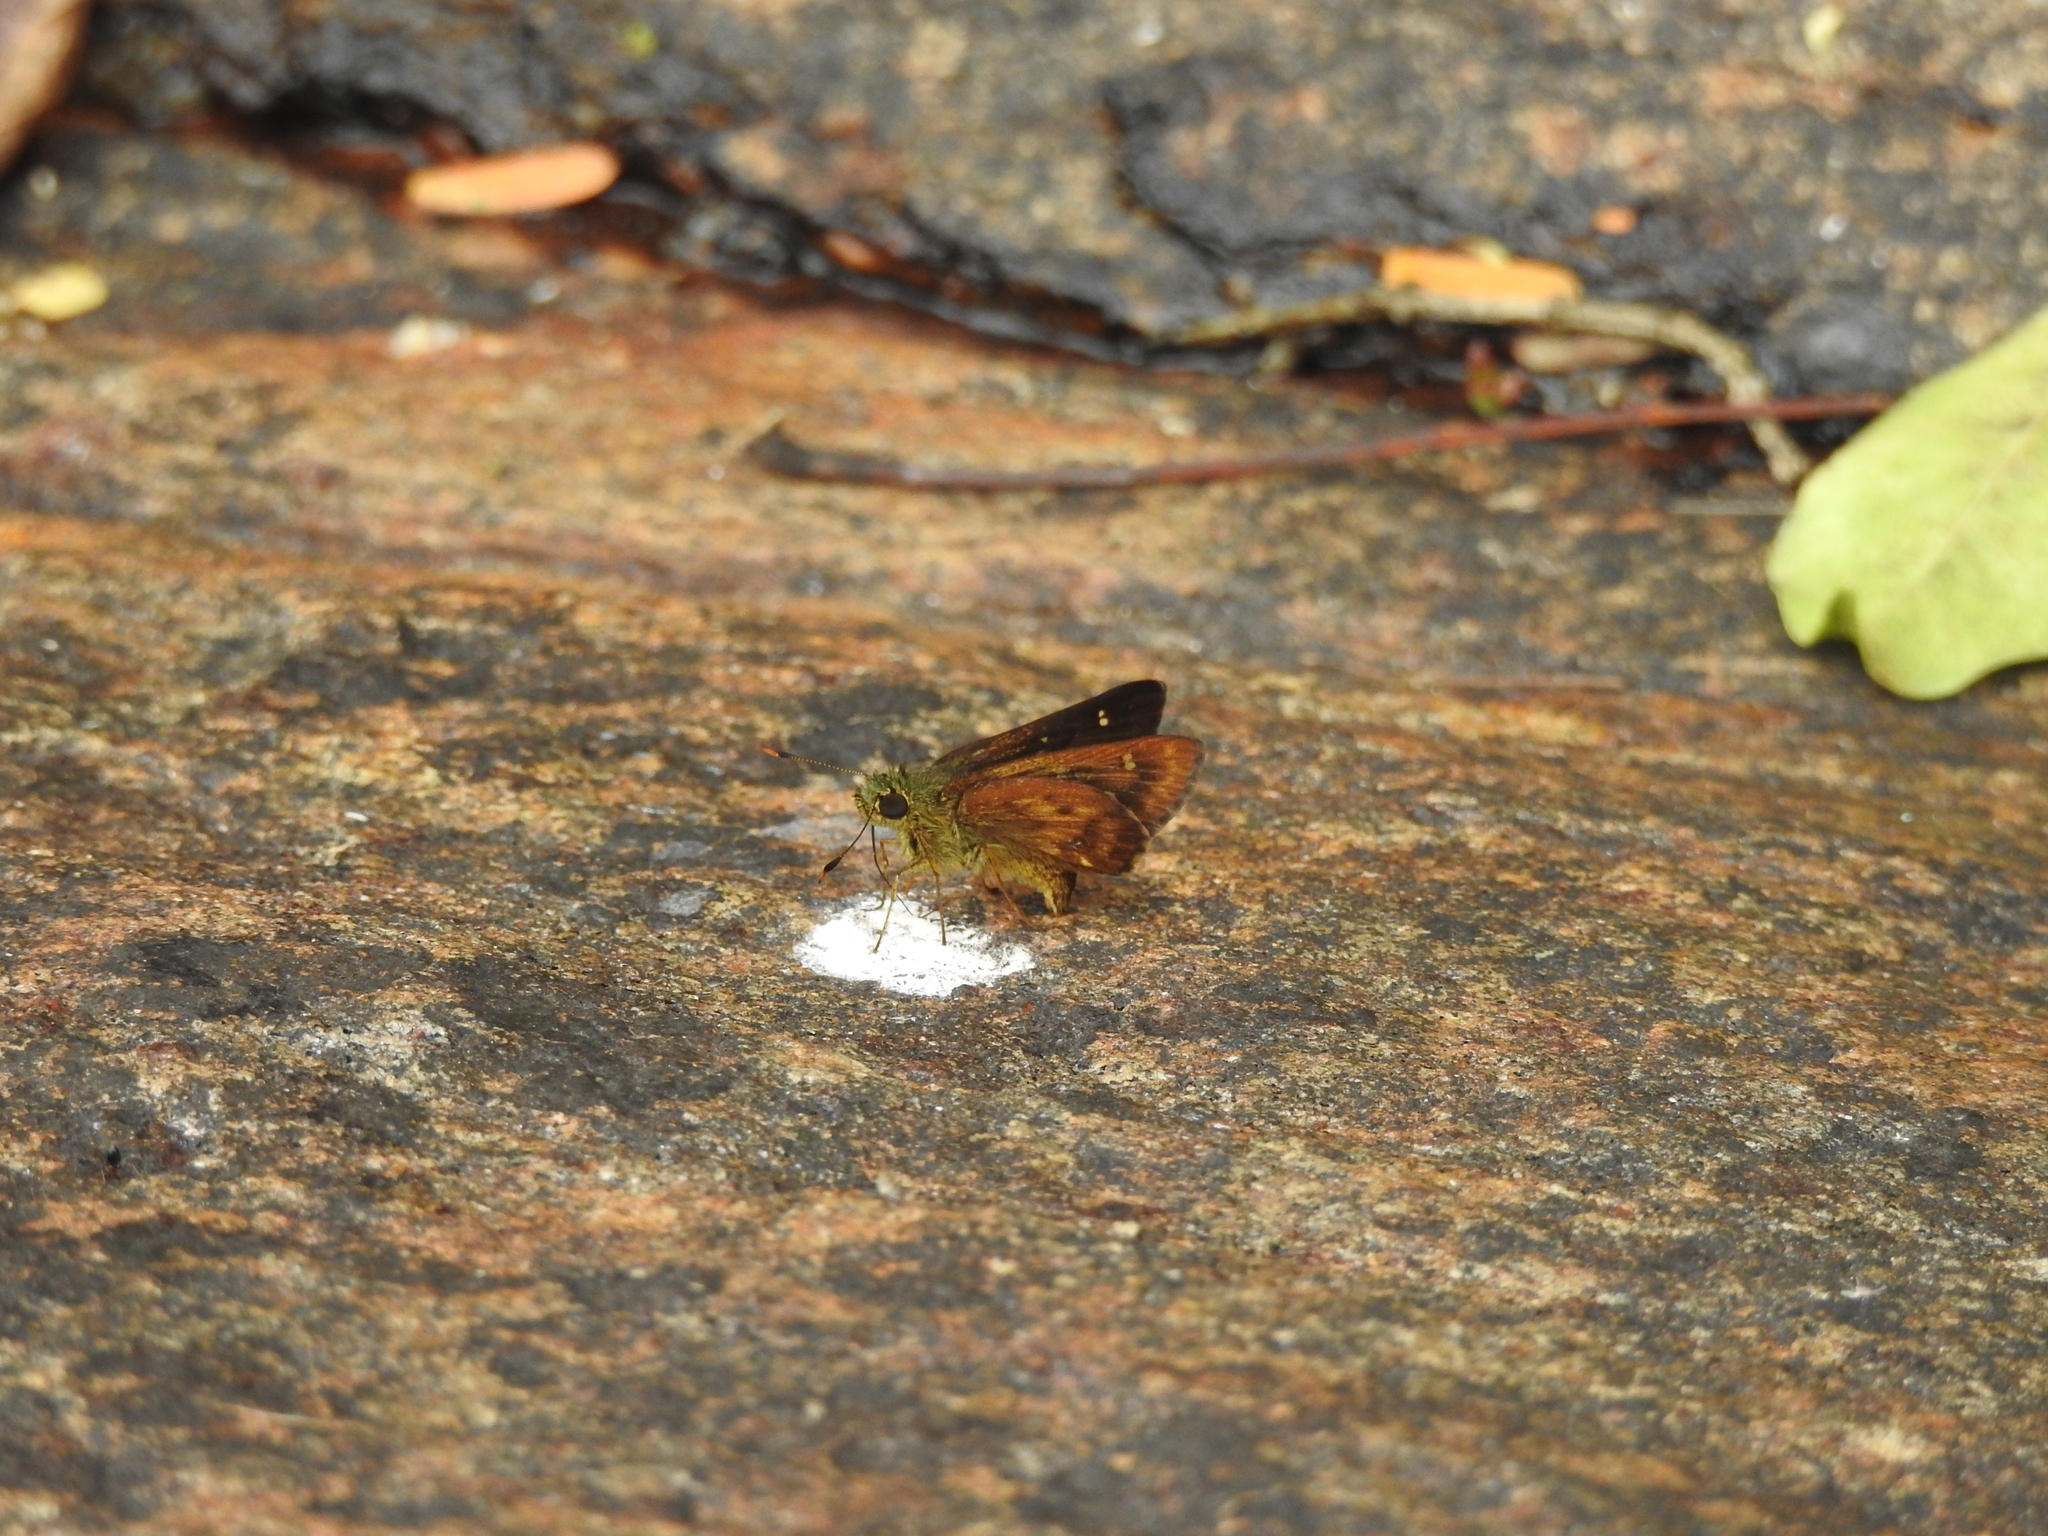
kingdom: Animalia
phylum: Arthropoda
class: Insecta
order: Lepidoptera
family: Hesperiidae
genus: Thoressa
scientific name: Thoressa evershedi
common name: Evershed's ace
